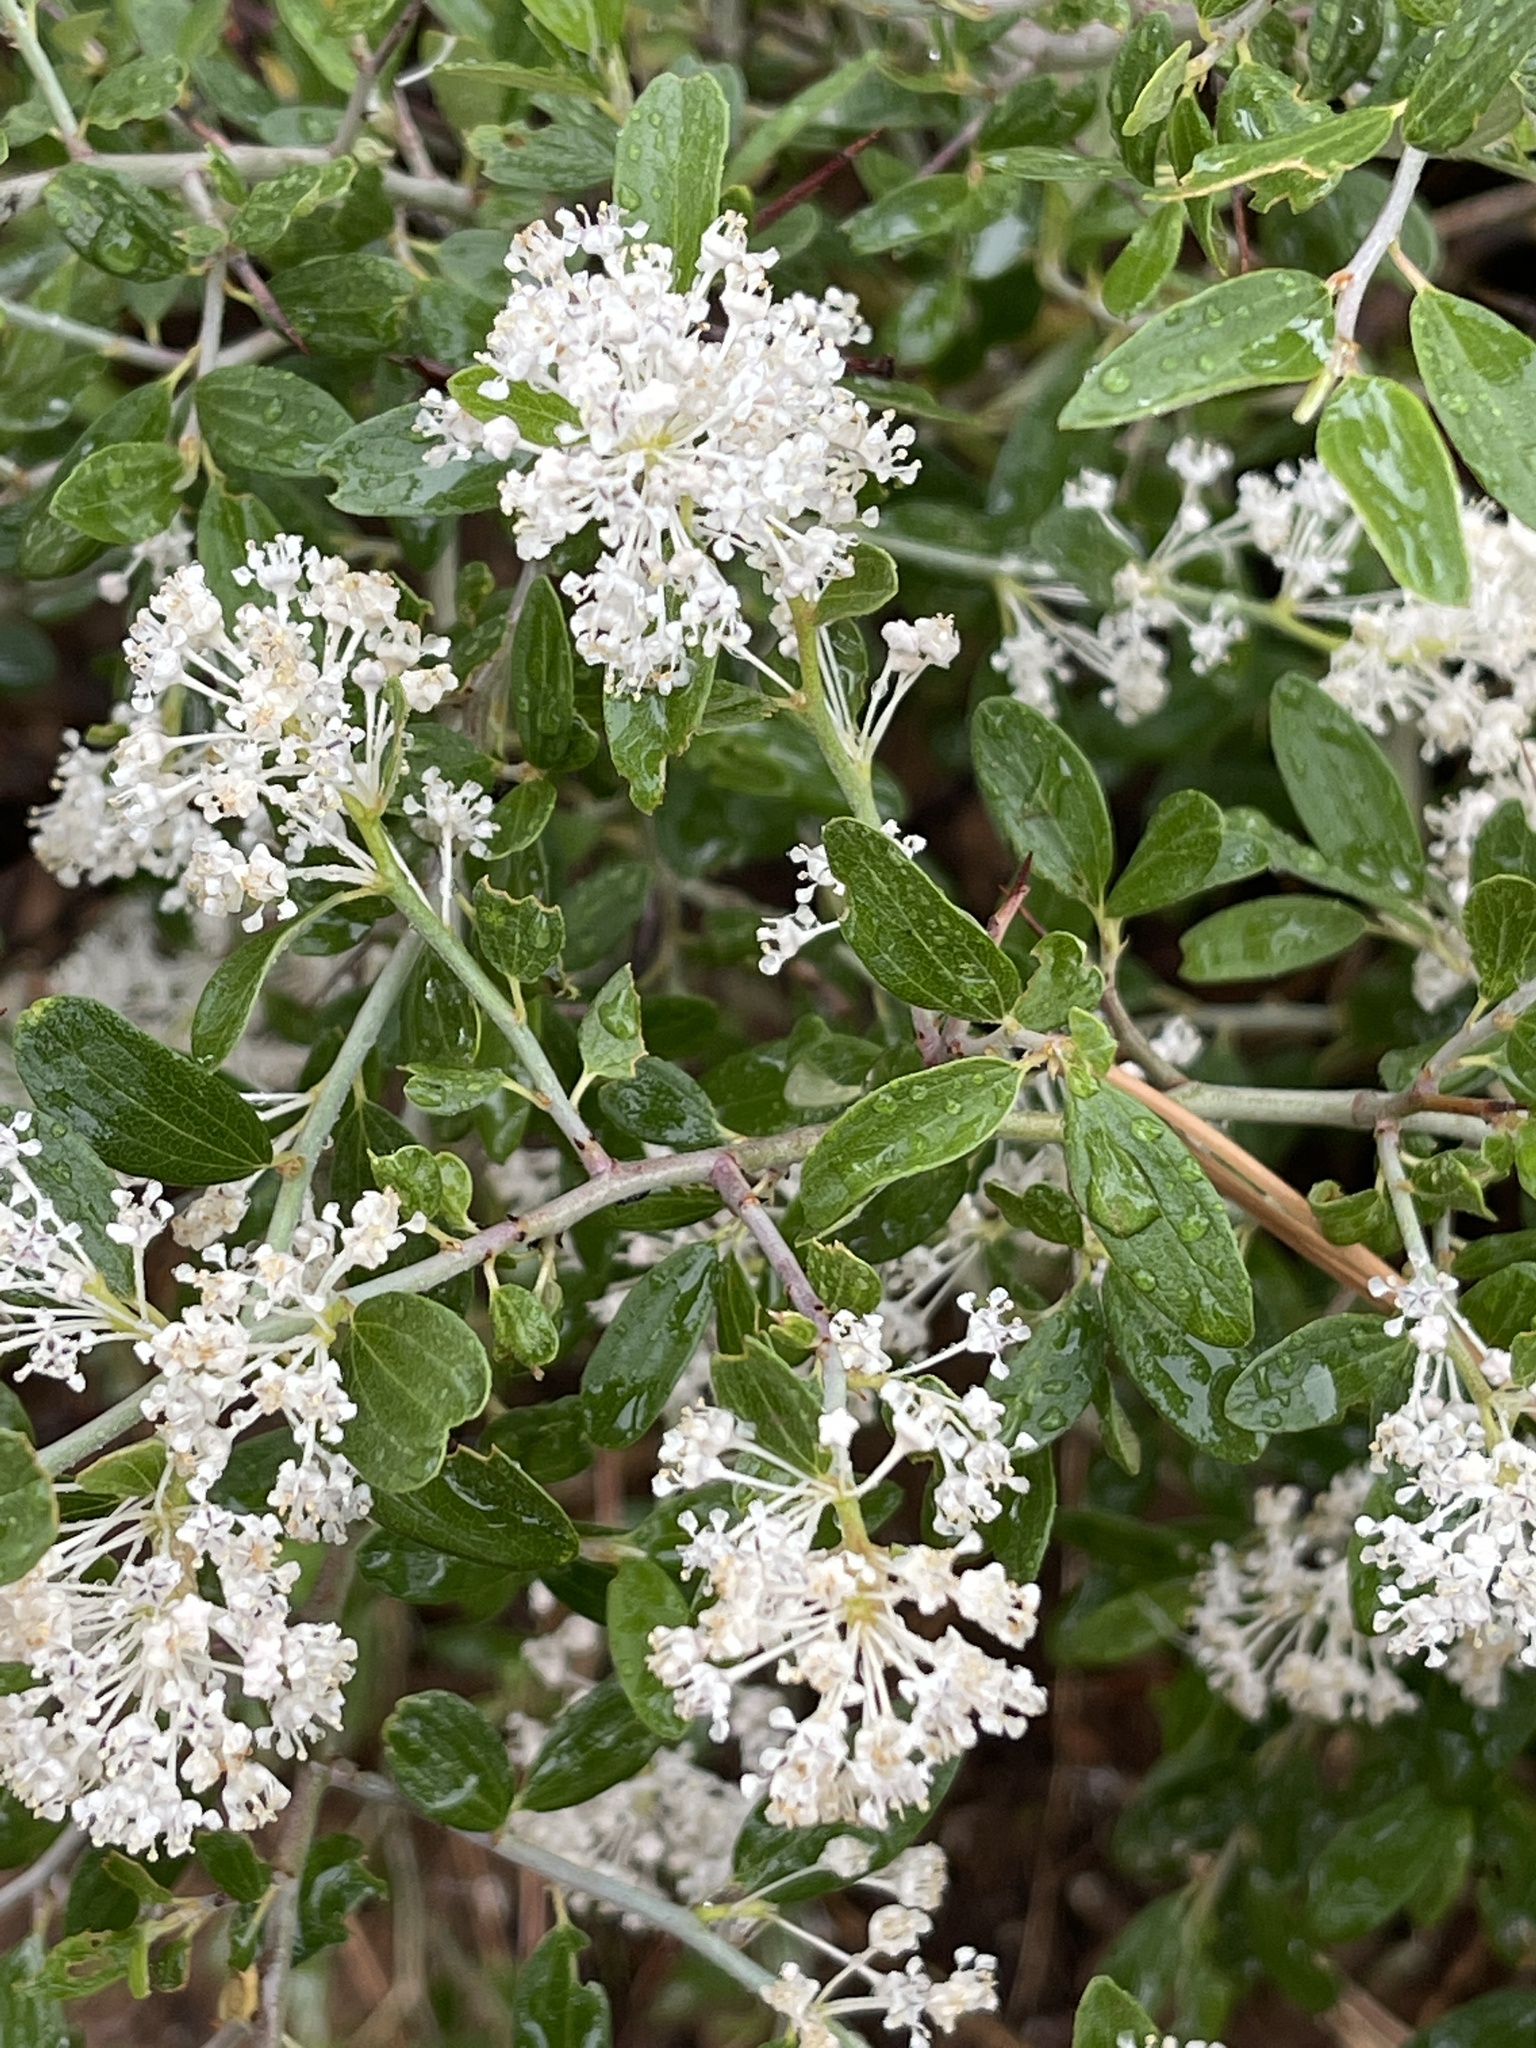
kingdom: Plantae
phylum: Tracheophyta
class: Magnoliopsida
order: Rosales
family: Rhamnaceae
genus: Ceanothus
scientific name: Ceanothus fendleri
